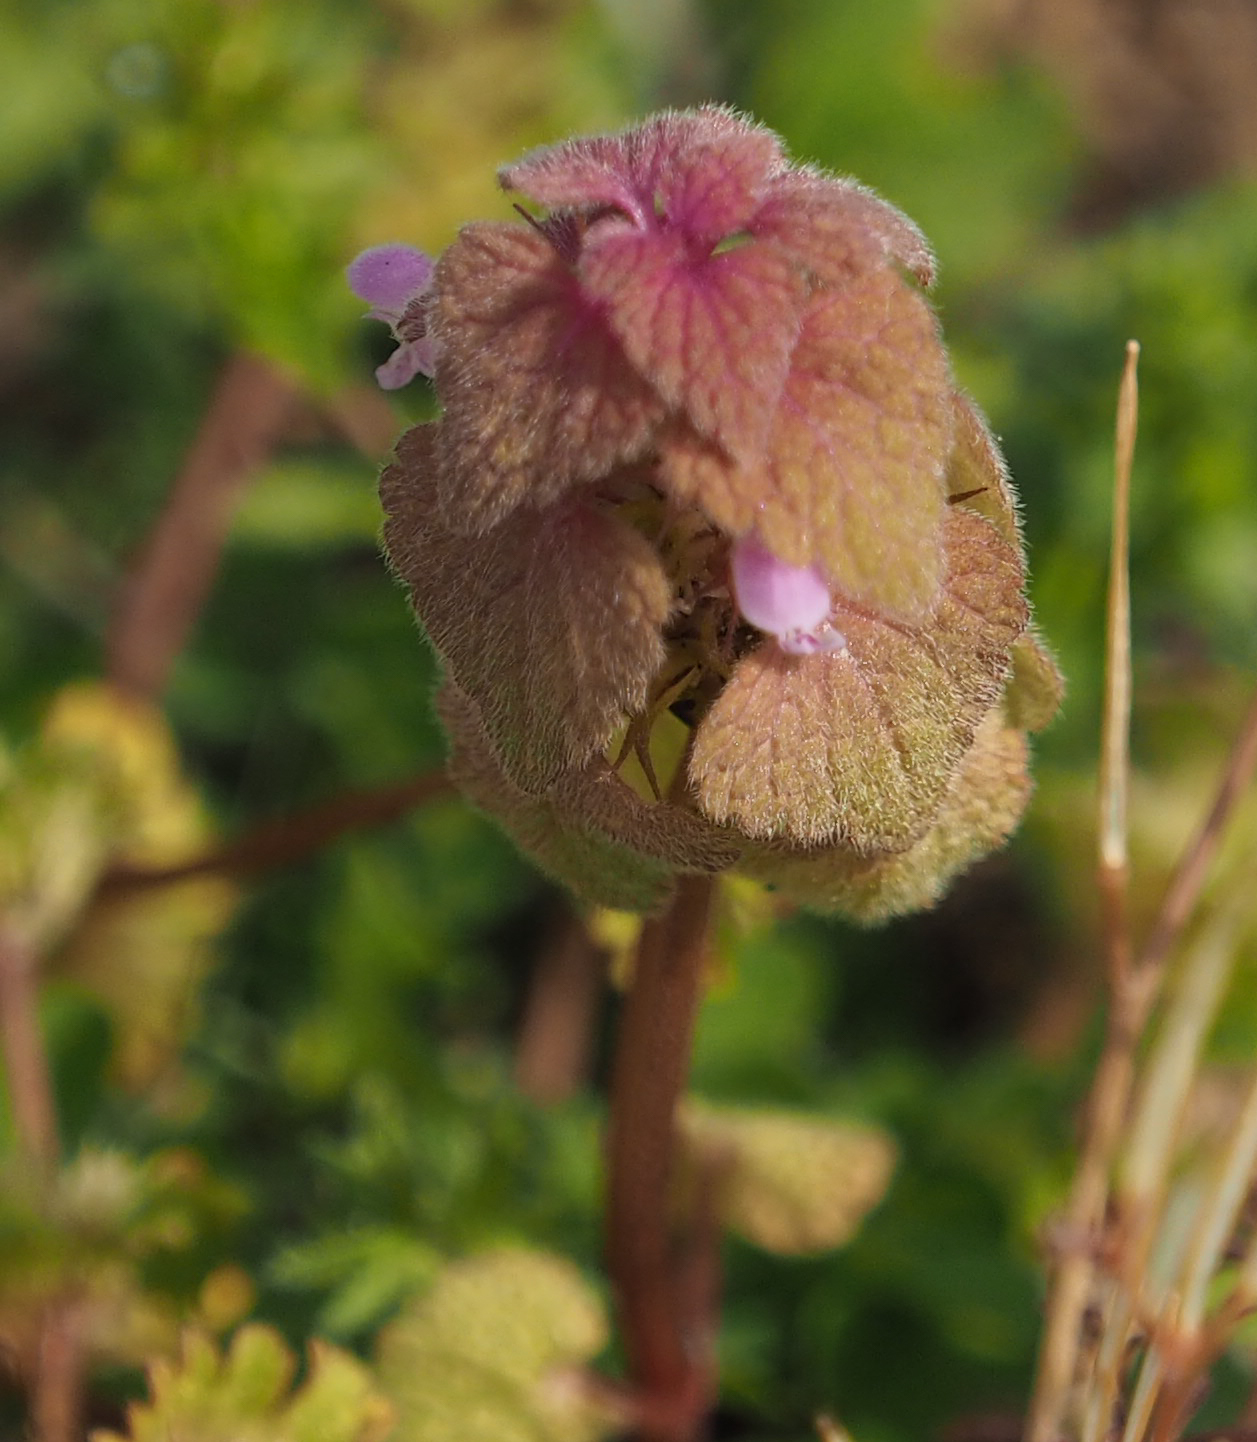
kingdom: Plantae
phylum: Tracheophyta
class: Magnoliopsida
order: Lamiales
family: Lamiaceae
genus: Lamium
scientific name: Lamium purpureum
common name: Red dead-nettle
